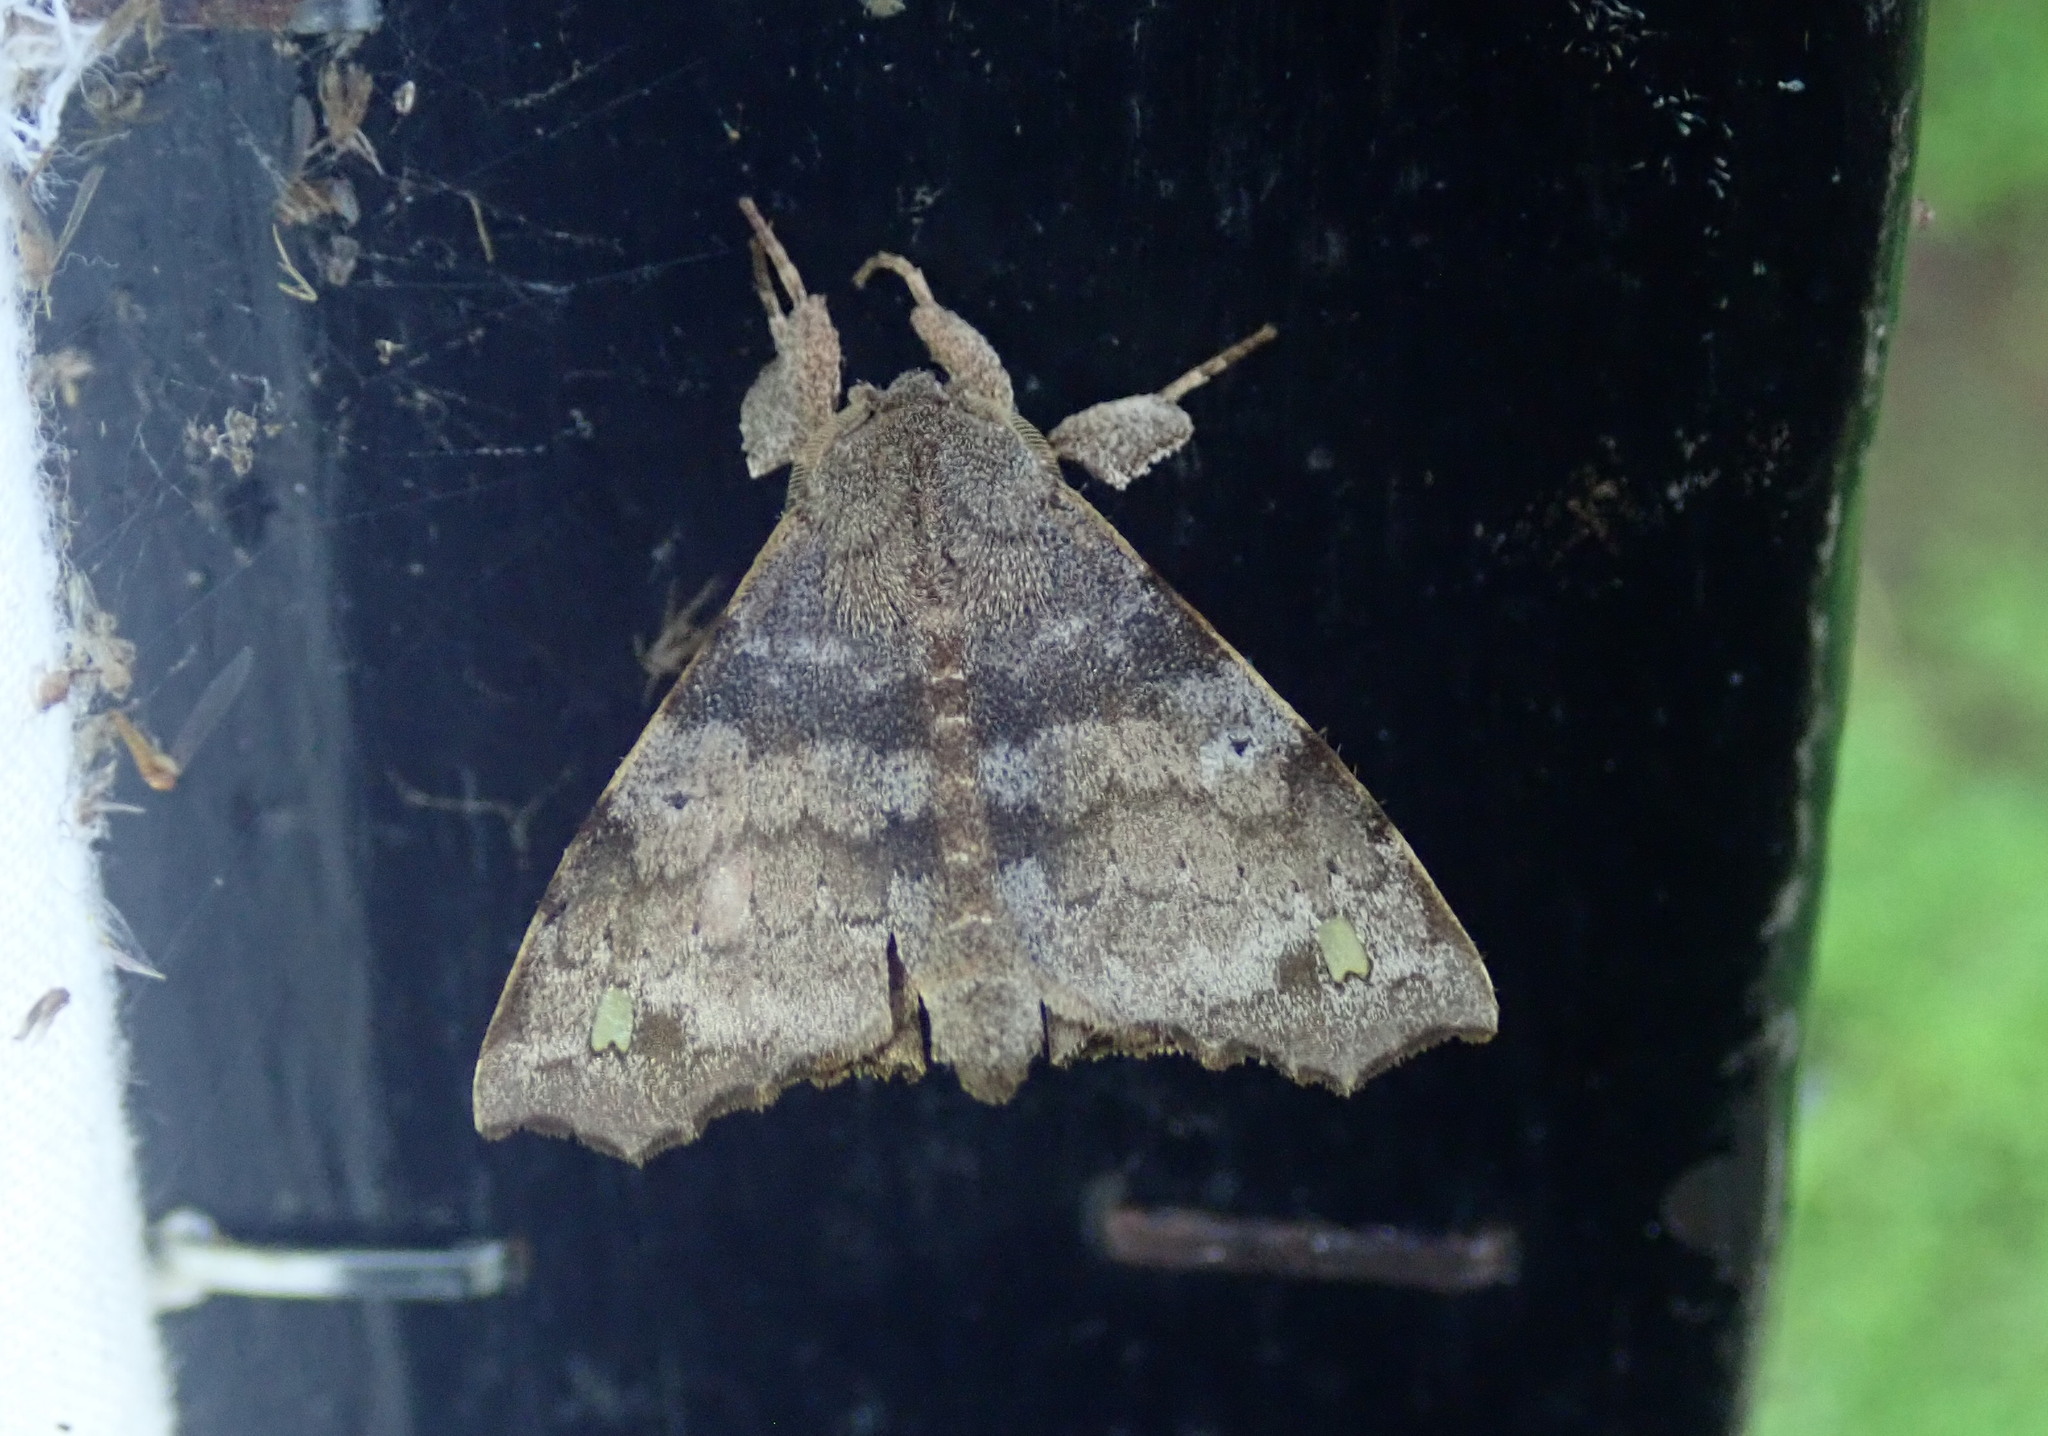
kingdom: Animalia
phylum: Arthropoda
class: Insecta
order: Lepidoptera
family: Apatelodidae
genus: Olceclostera
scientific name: Olceclostera brama
